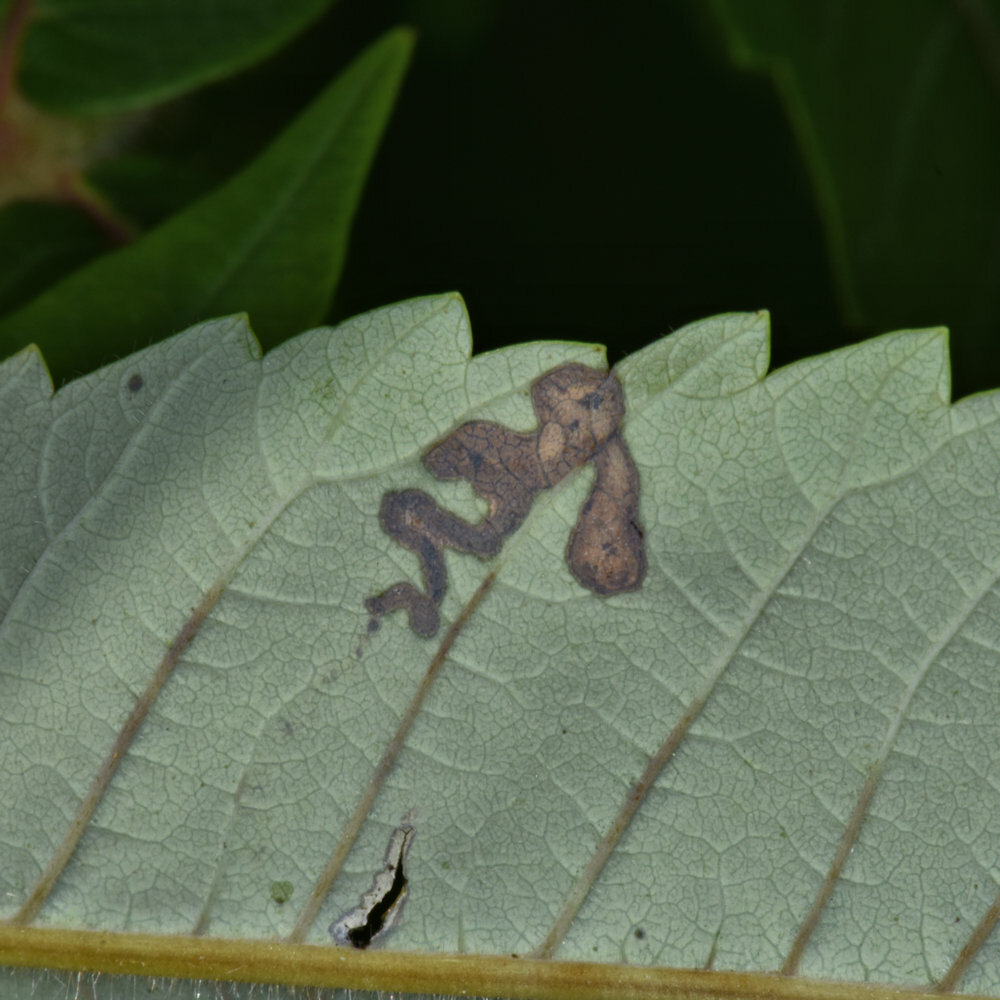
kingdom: Animalia
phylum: Arthropoda
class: Insecta
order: Lepidoptera
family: Nepticulidae
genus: Stigmella
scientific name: Stigmella intermedia
